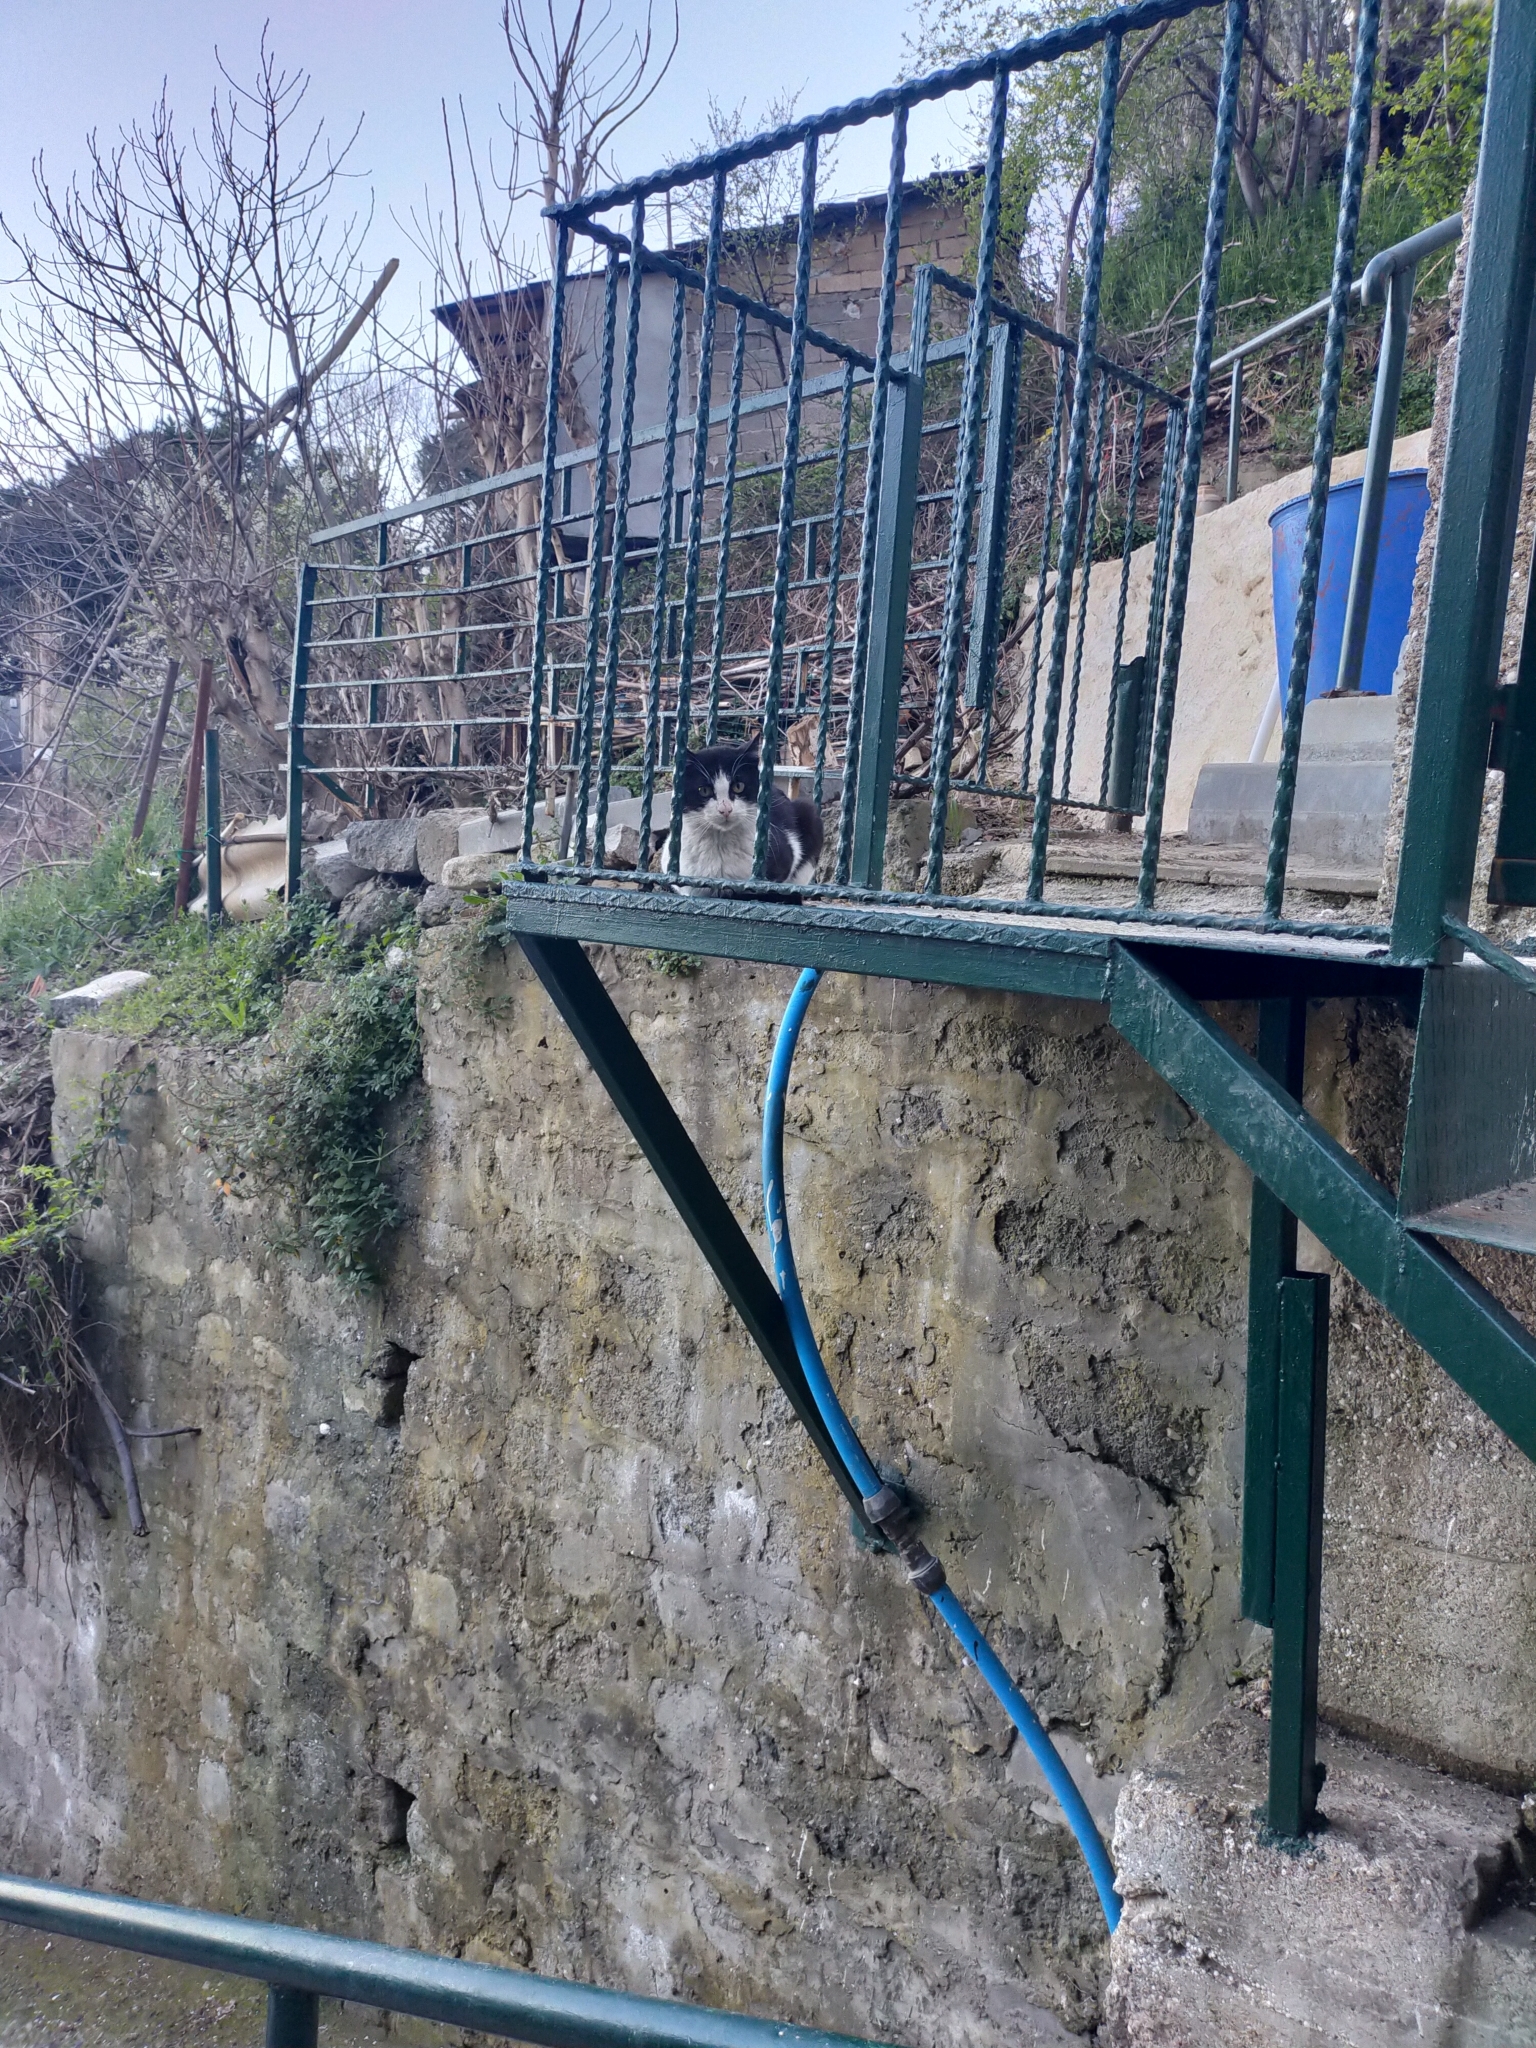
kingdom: Animalia
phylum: Chordata
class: Mammalia
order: Carnivora
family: Felidae
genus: Felis
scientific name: Felis catus
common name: Domestic cat
